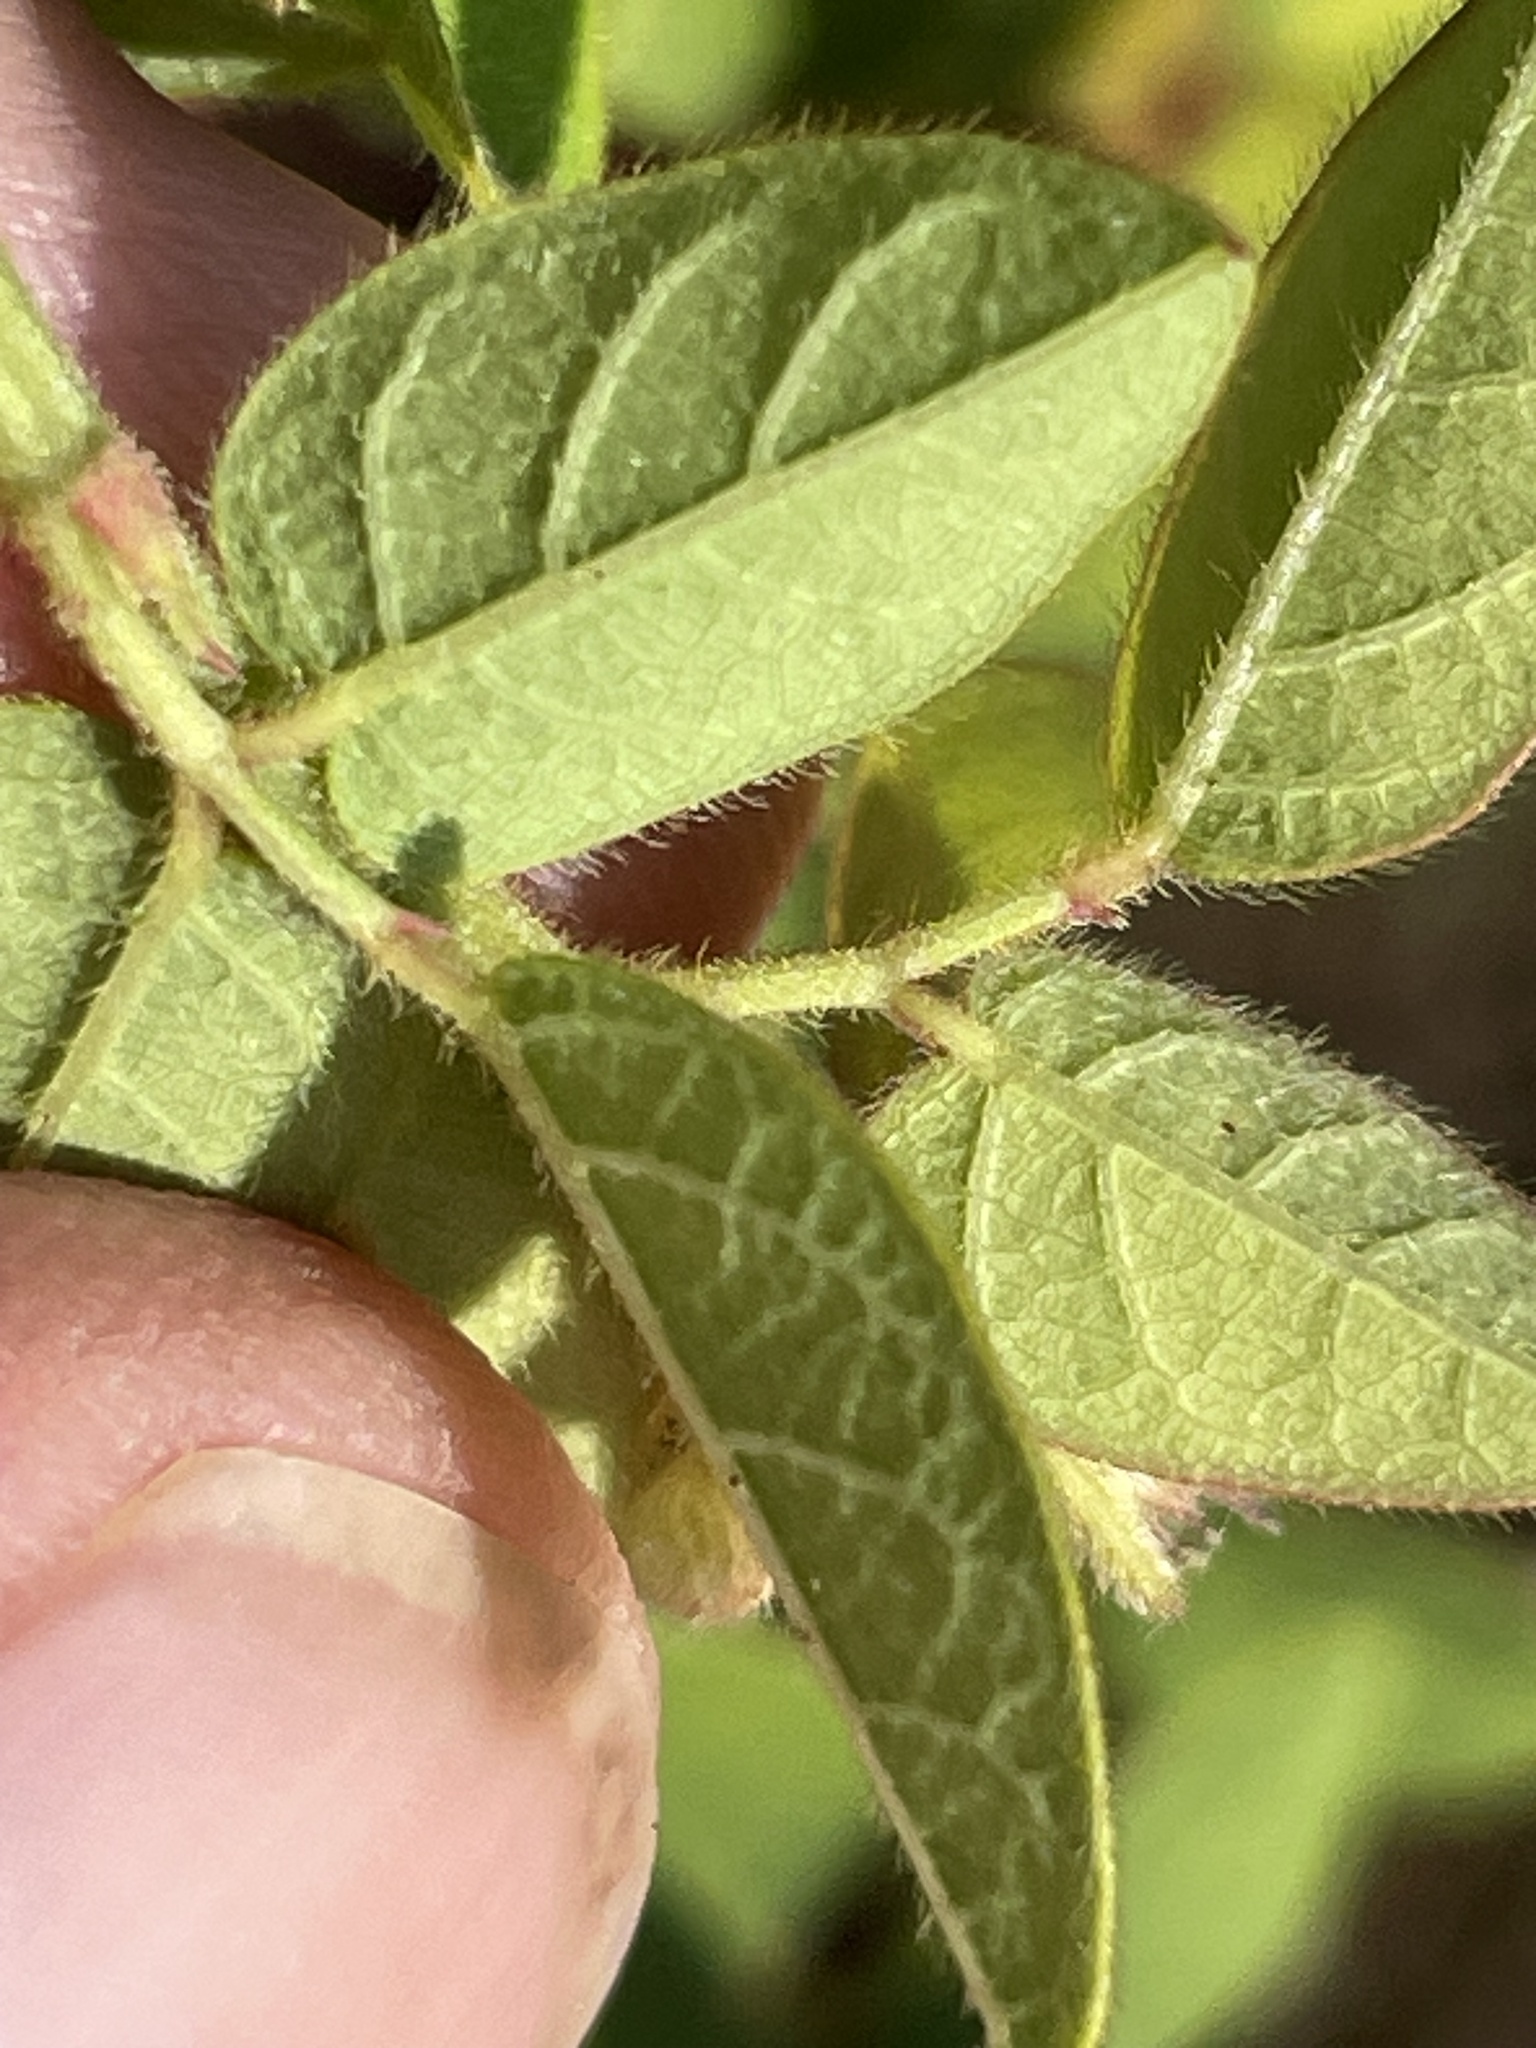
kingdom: Plantae
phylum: Tracheophyta
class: Magnoliopsida
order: Fabales
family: Fabaceae
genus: Desmodium
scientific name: Desmodium ciliare
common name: Hairy small-leaf ticktrefoil
